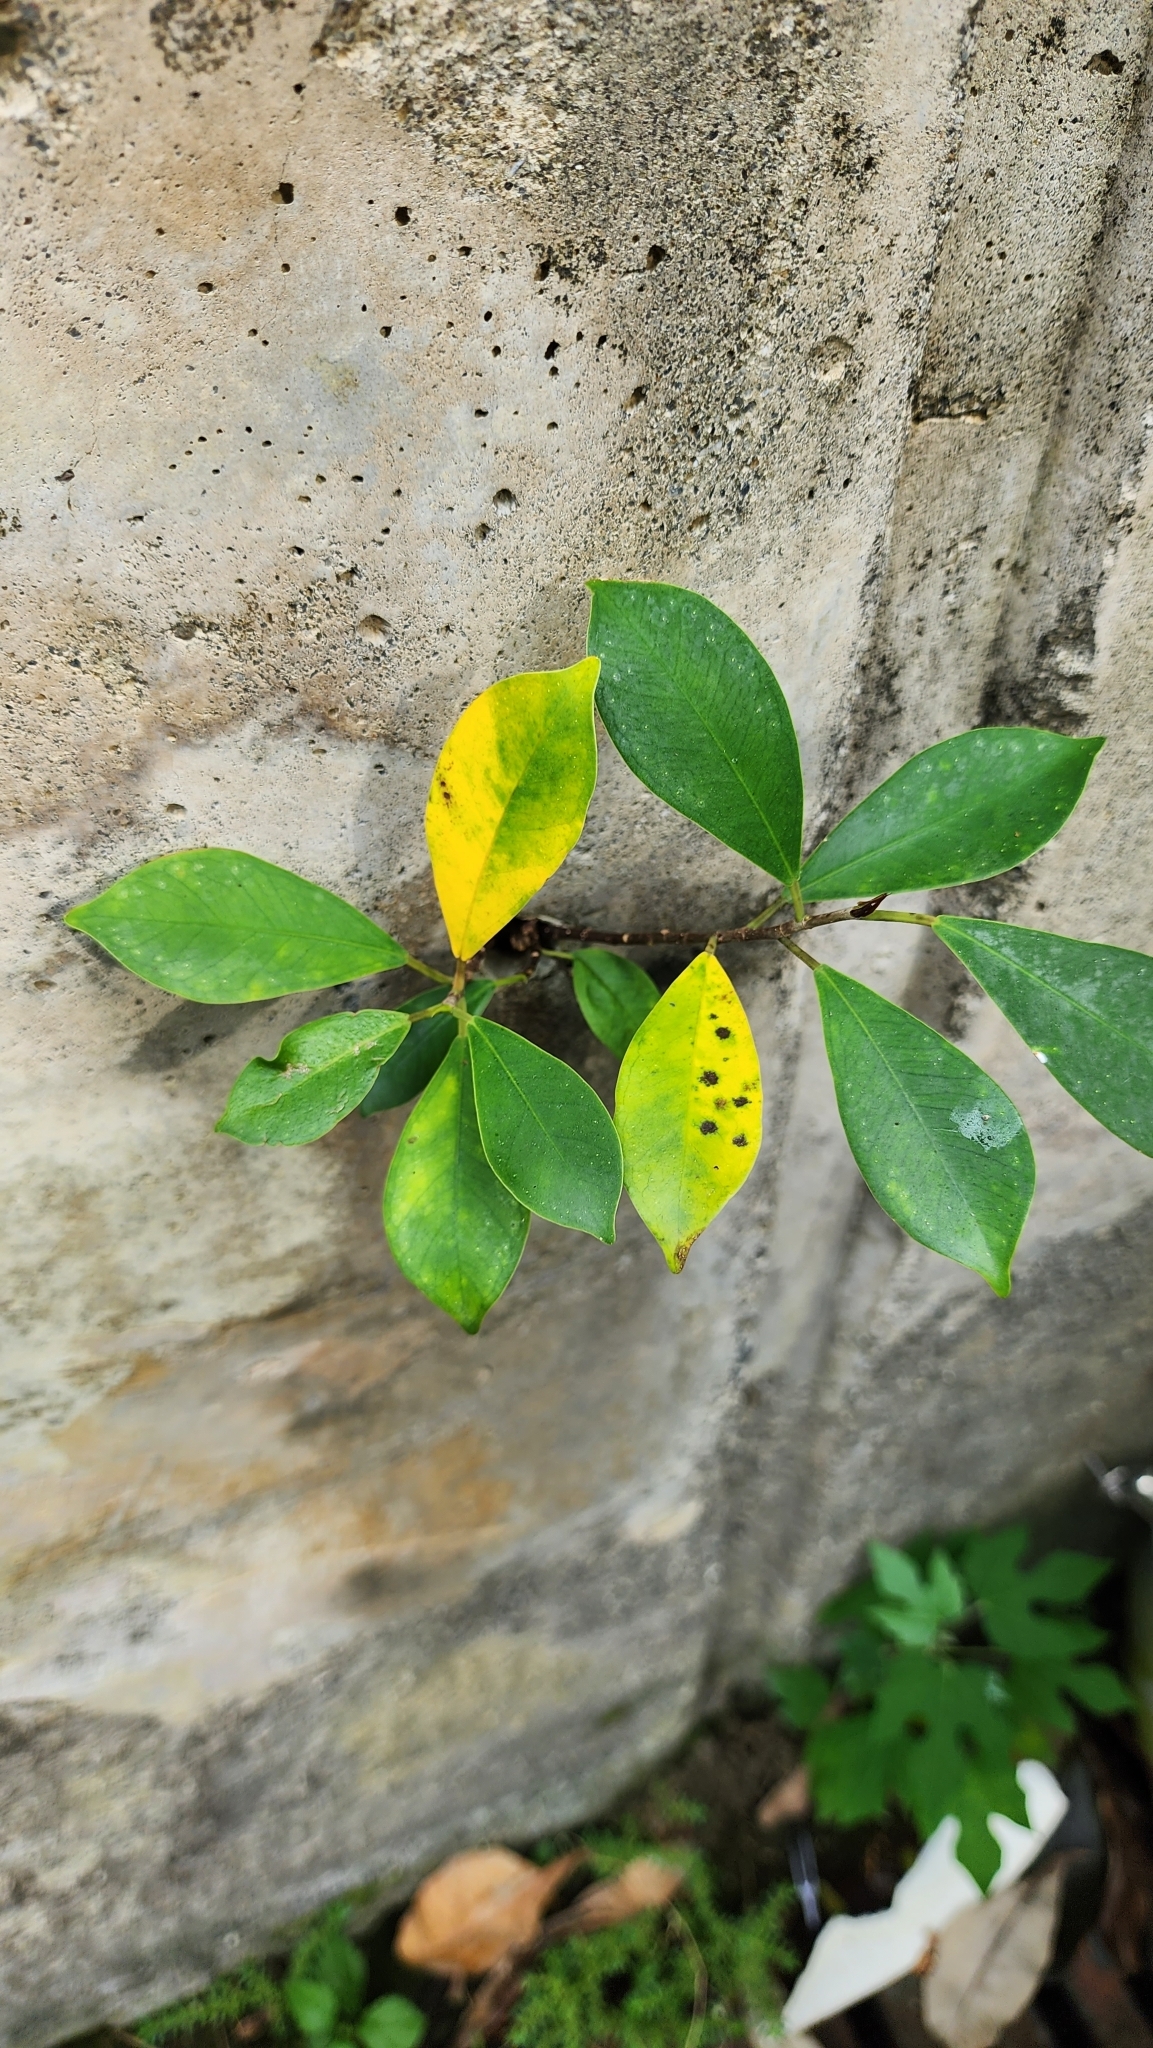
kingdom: Plantae
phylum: Tracheophyta
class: Magnoliopsida
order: Rosales
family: Moraceae
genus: Ficus
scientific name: Ficus microcarpa
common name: Chinese banyan
